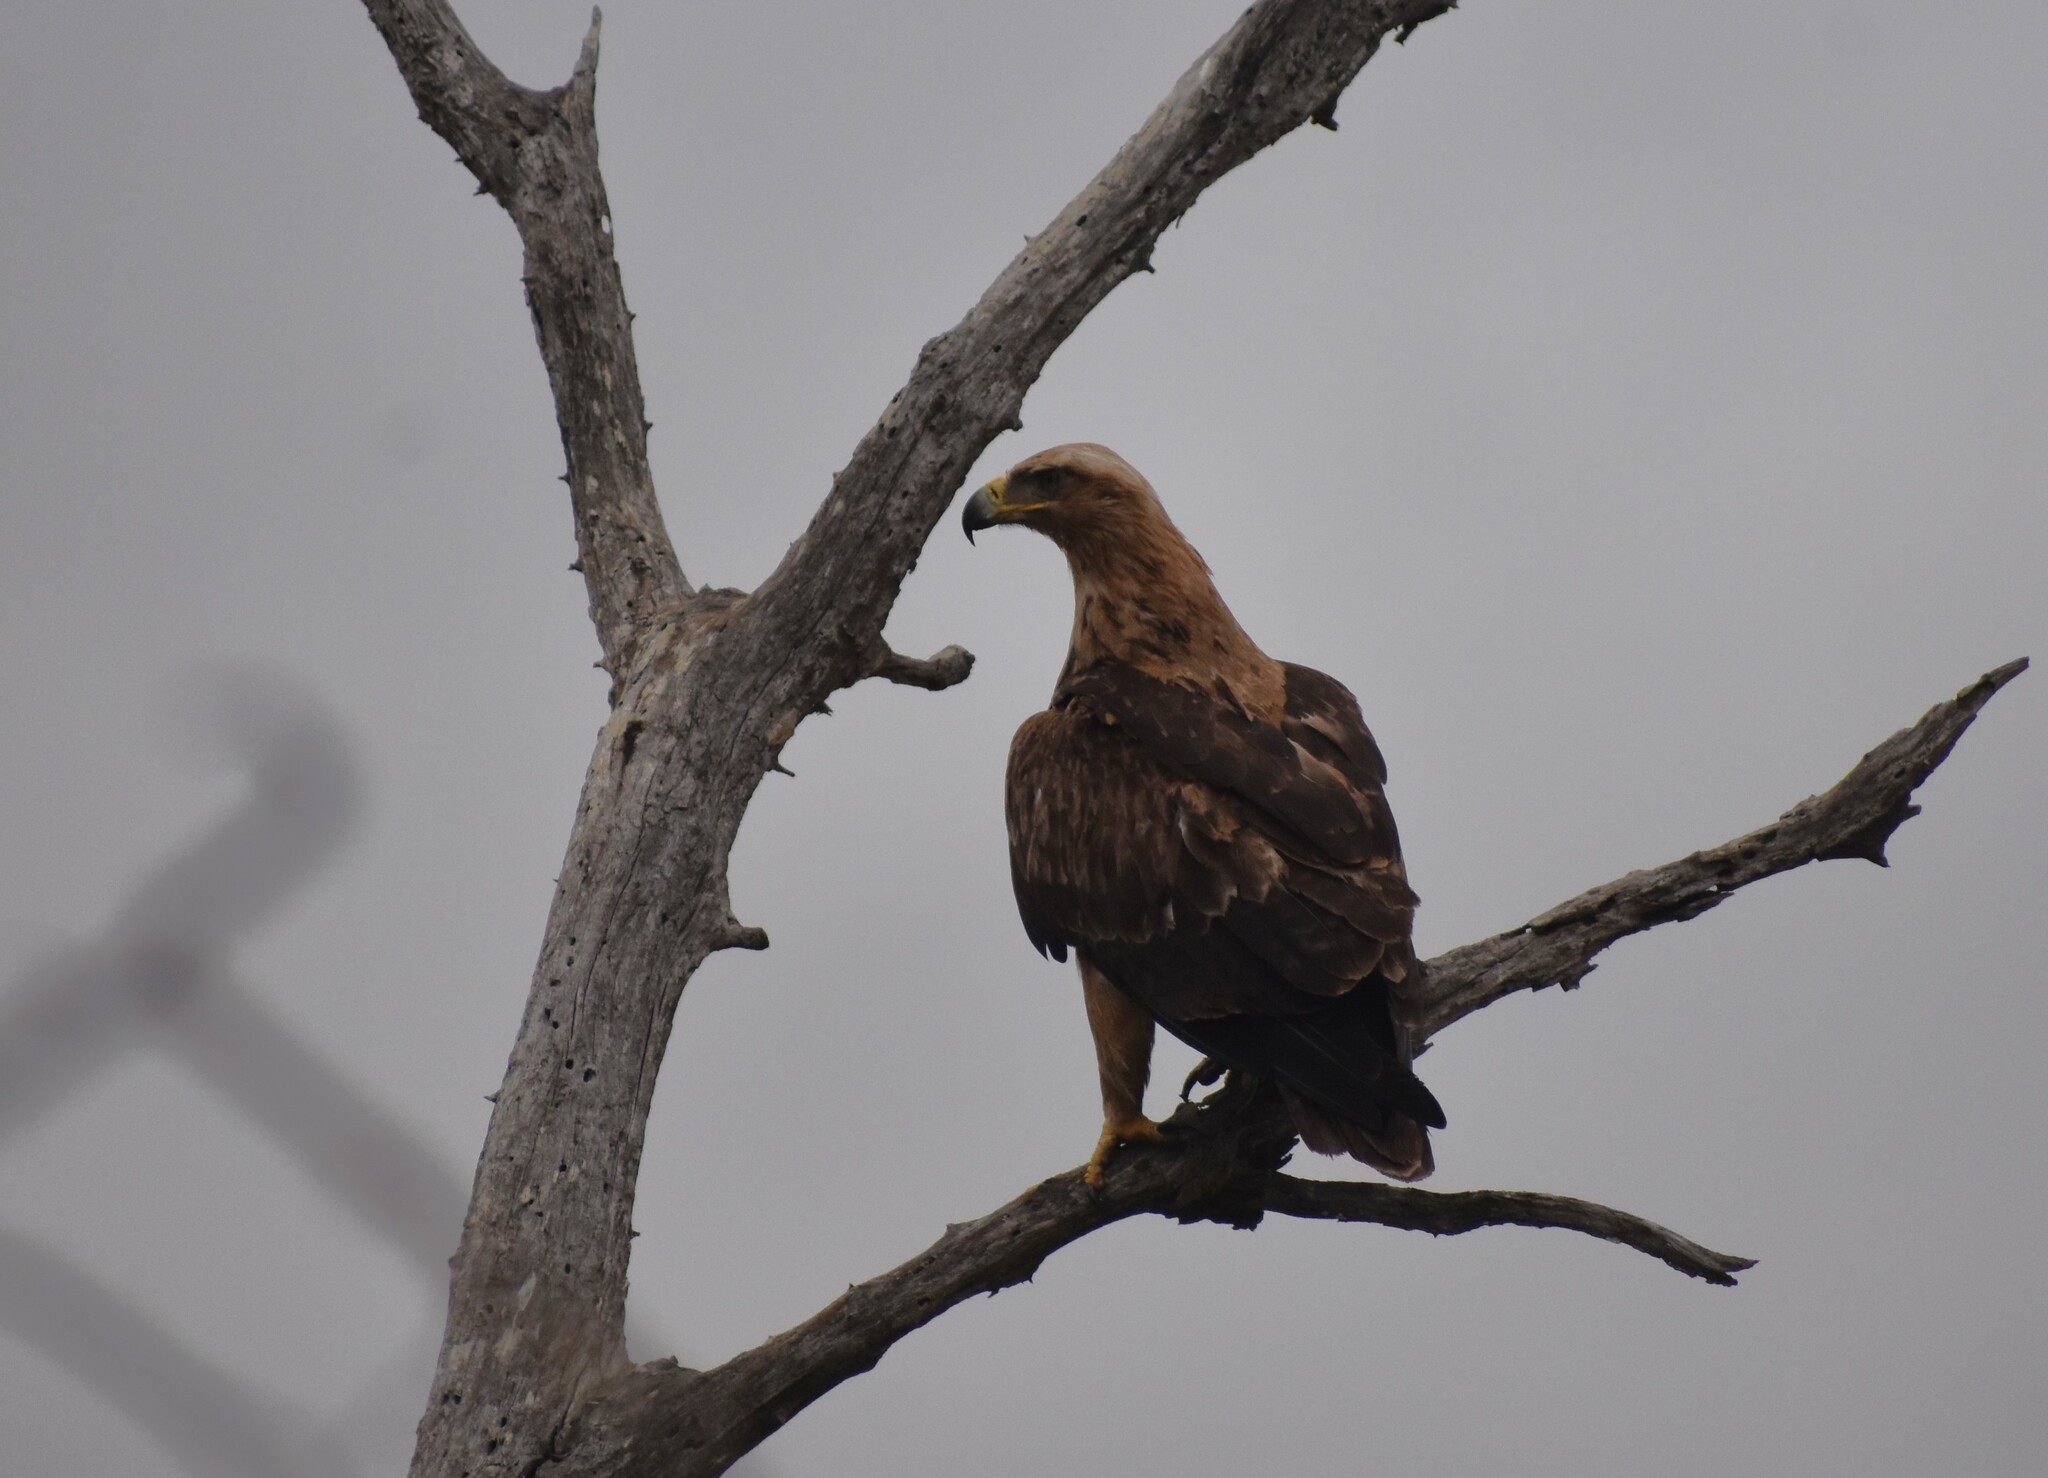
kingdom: Animalia
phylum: Chordata
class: Aves
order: Accipitriformes
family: Accipitridae
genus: Aquila
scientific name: Aquila rapax
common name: Tawny eagle
